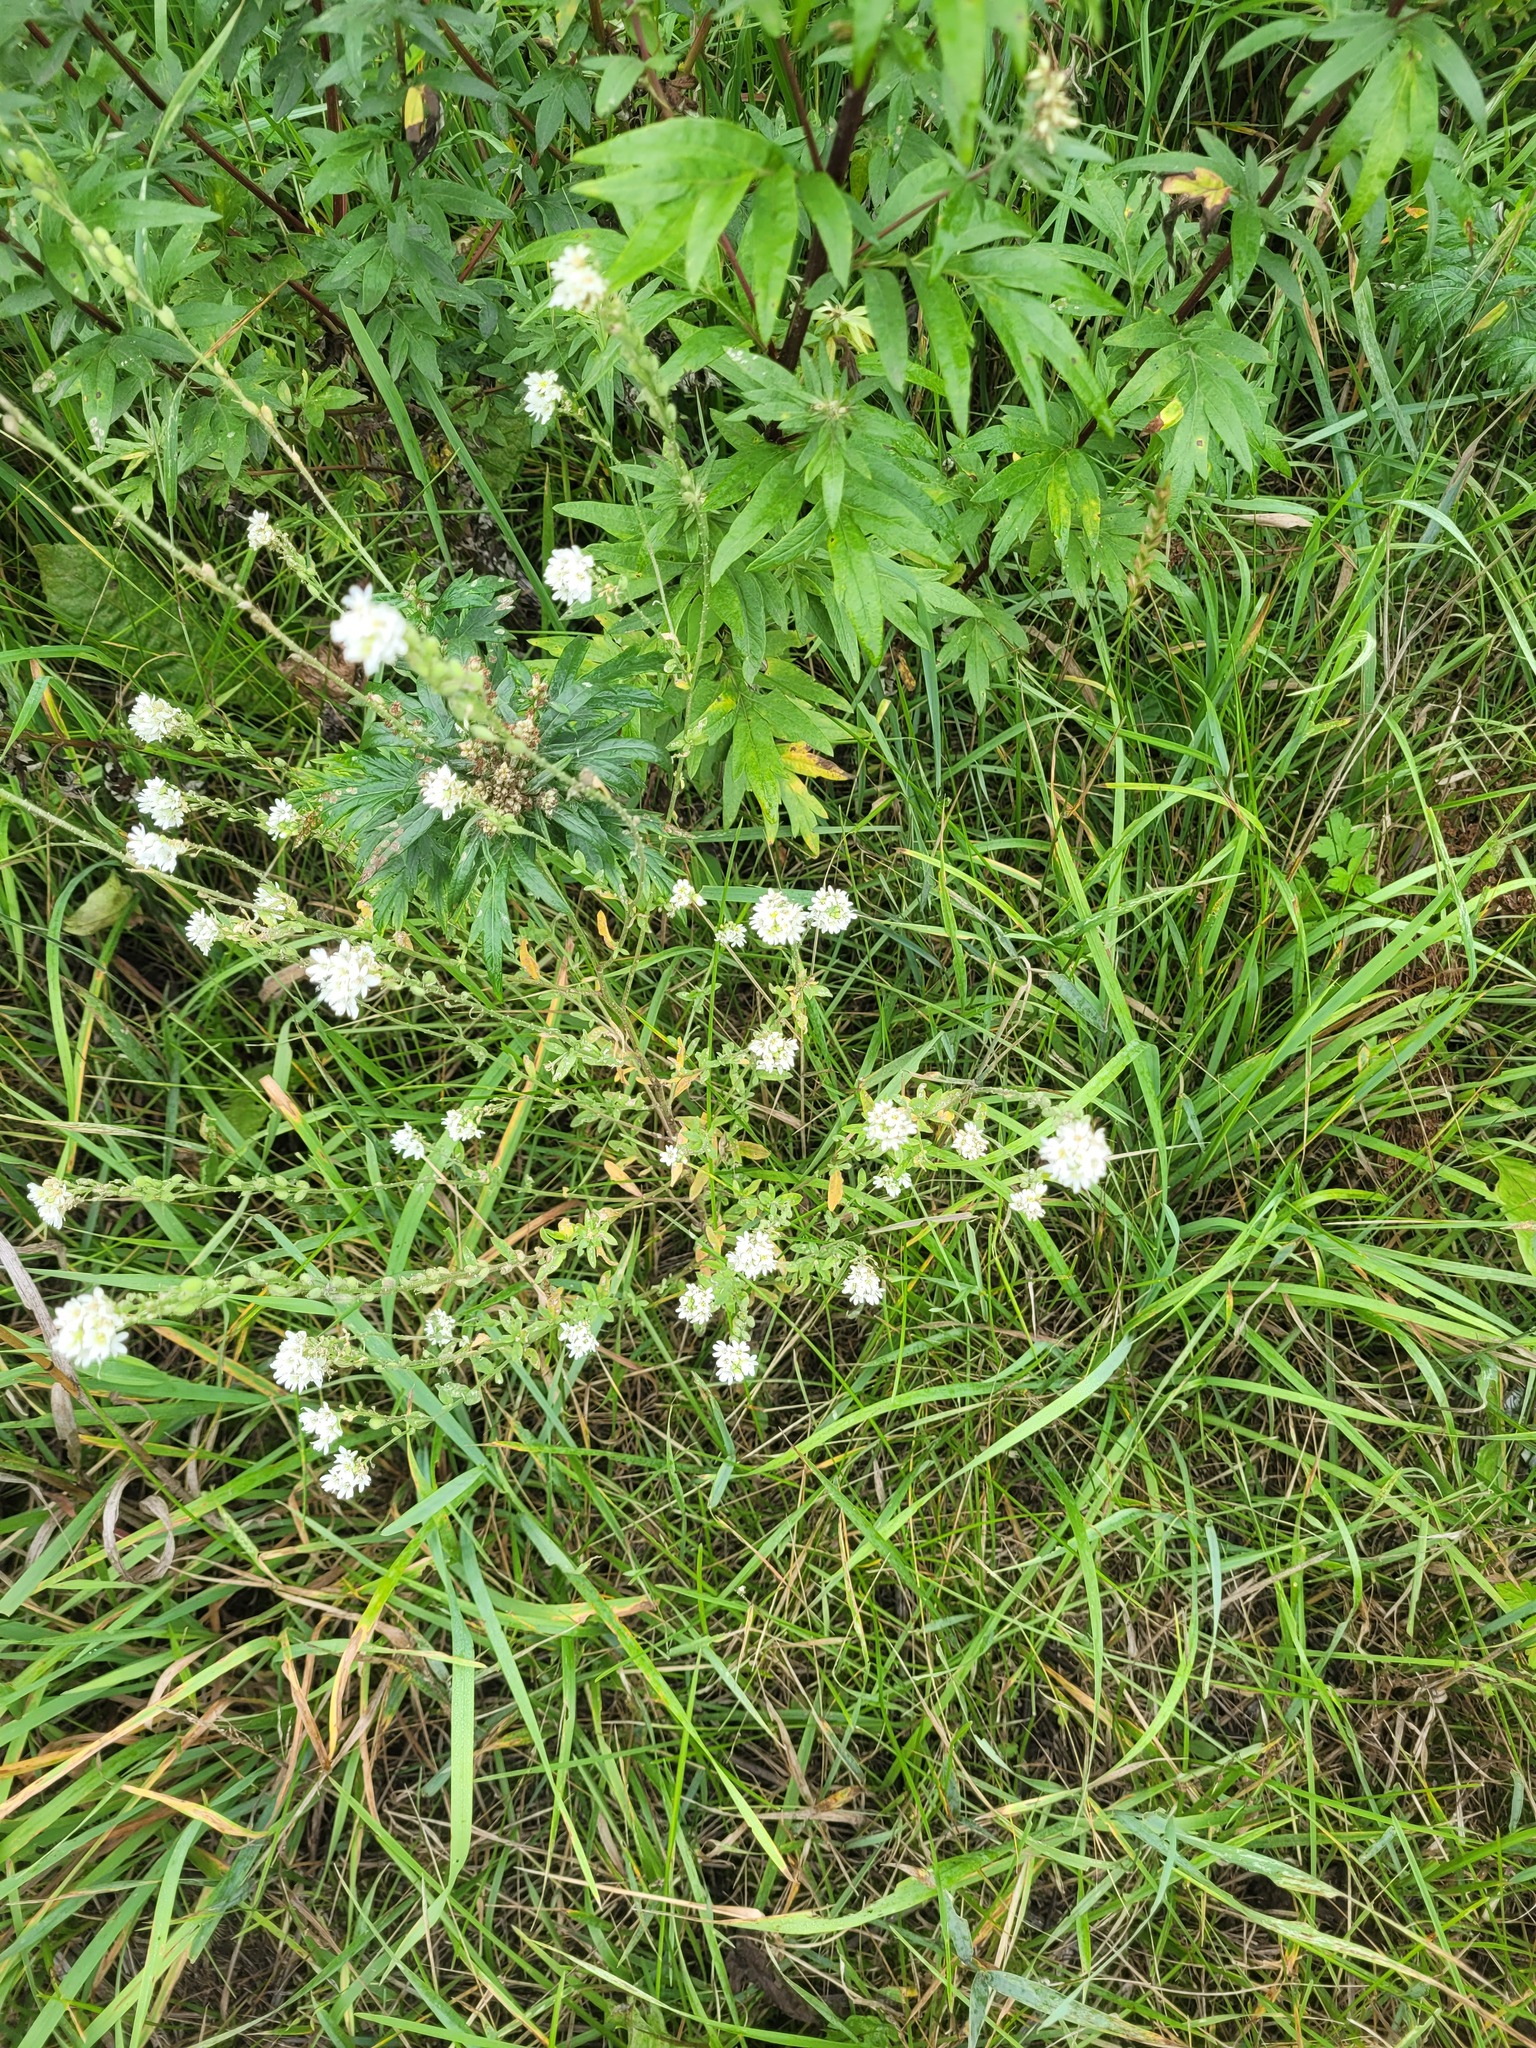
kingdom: Plantae
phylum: Tracheophyta
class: Magnoliopsida
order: Brassicales
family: Brassicaceae
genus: Berteroa
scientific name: Berteroa incana
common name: Hoary alison
